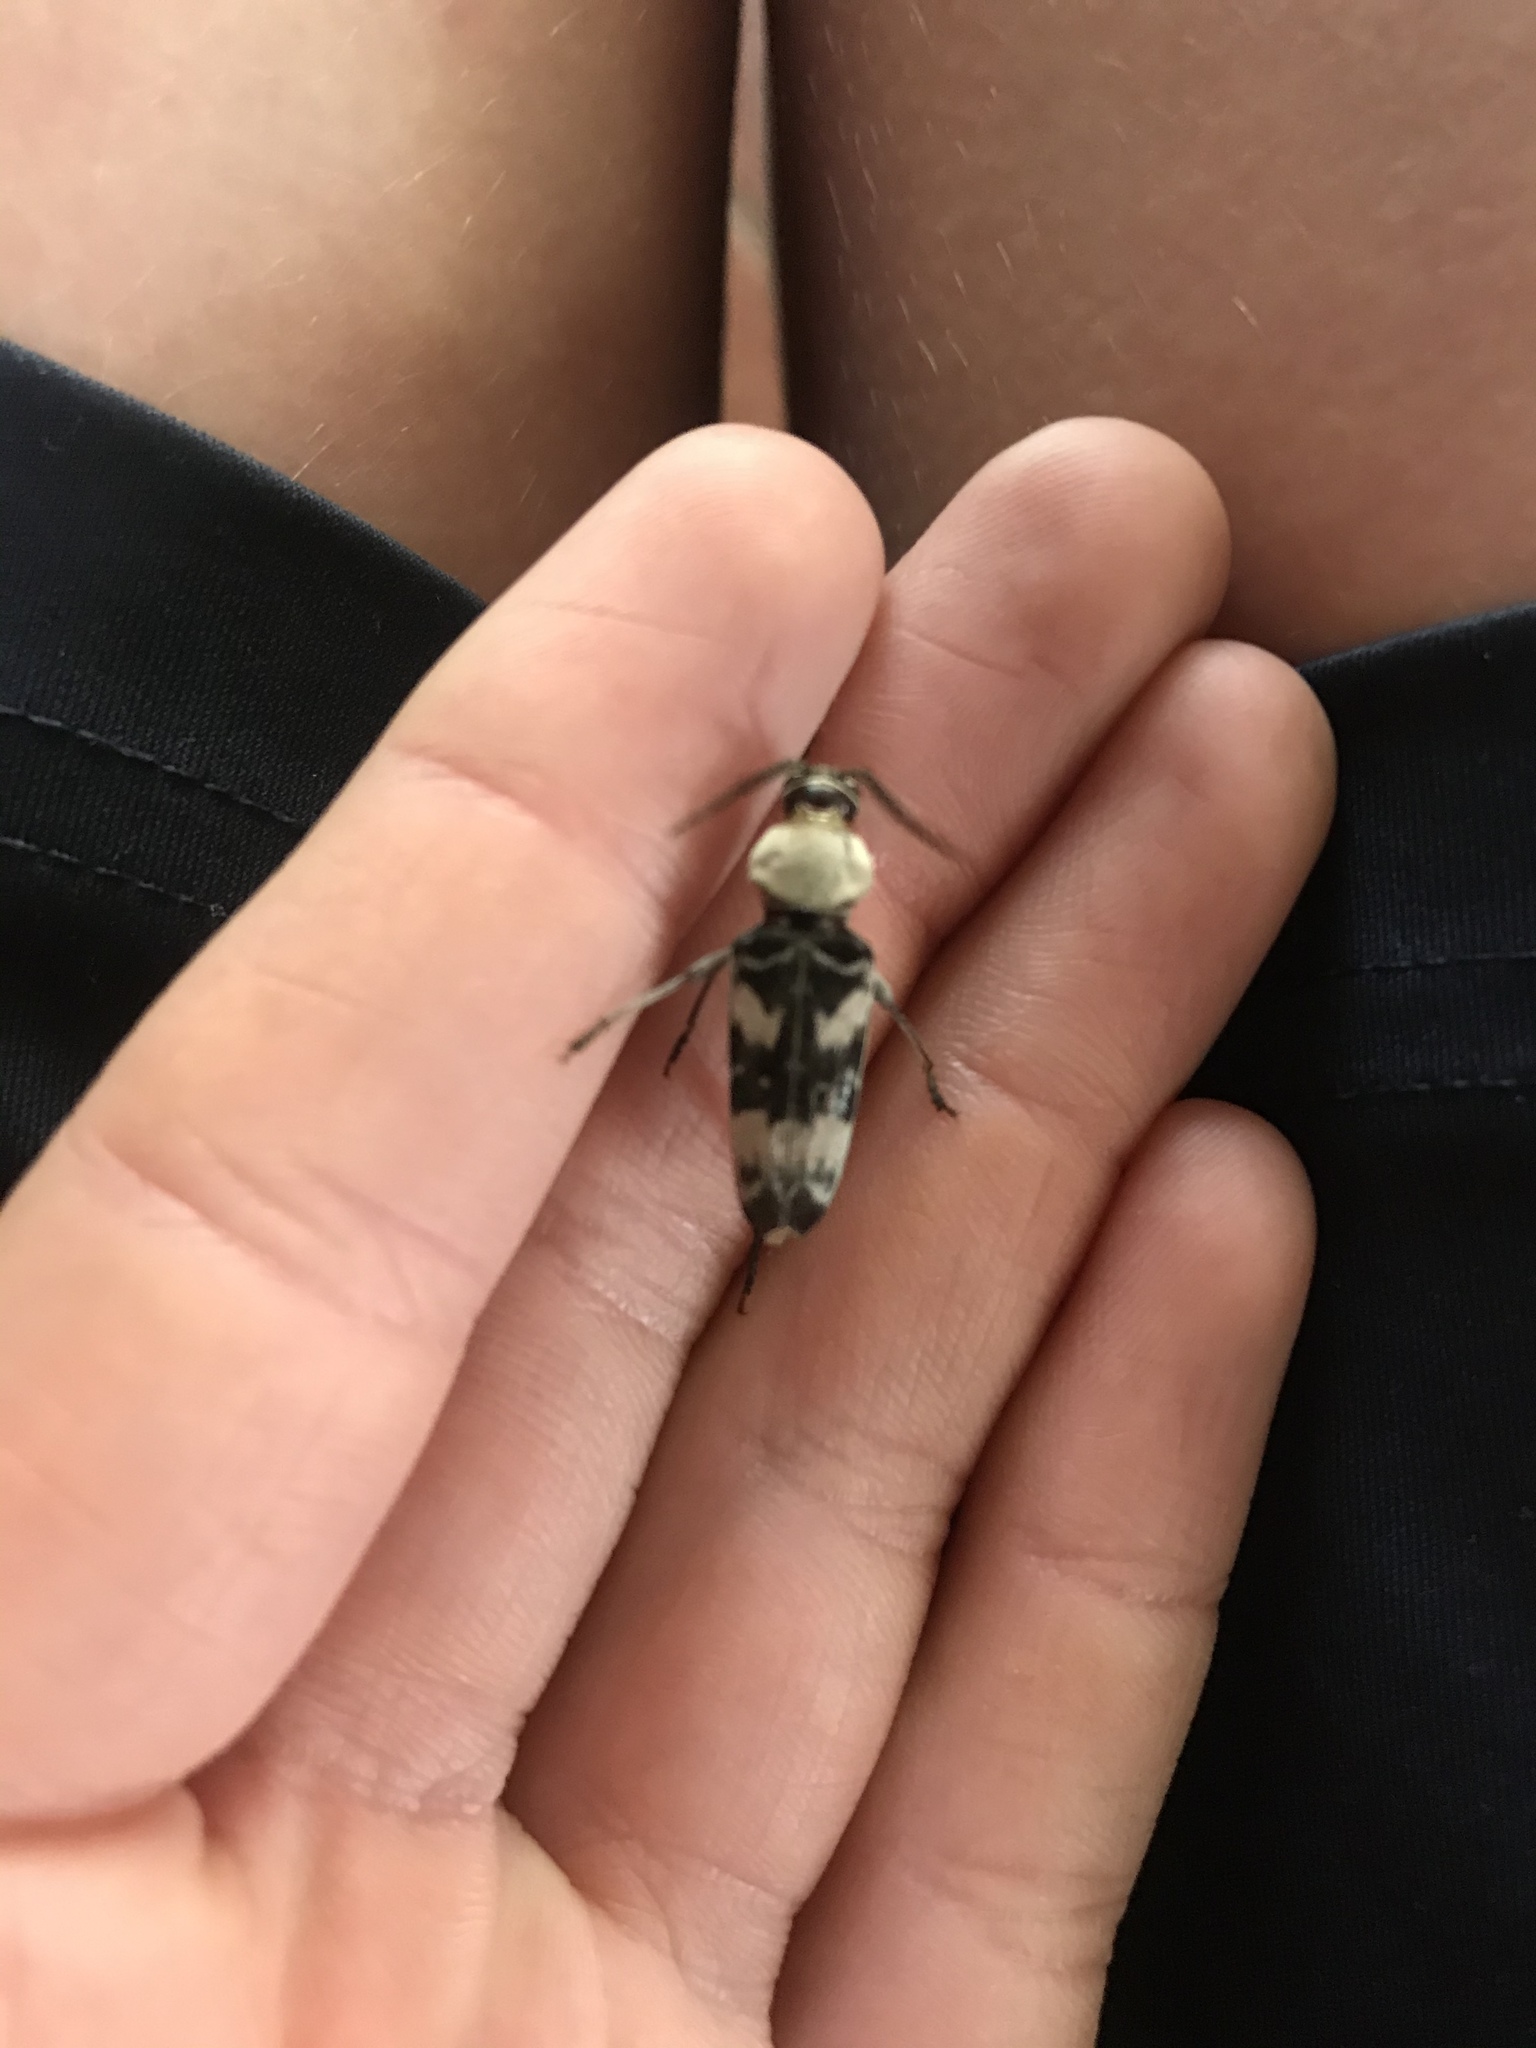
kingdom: Animalia
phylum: Arthropoda
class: Insecta
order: Coleoptera
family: Cerambycidae
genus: Megacyllene
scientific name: Megacyllene antennata
